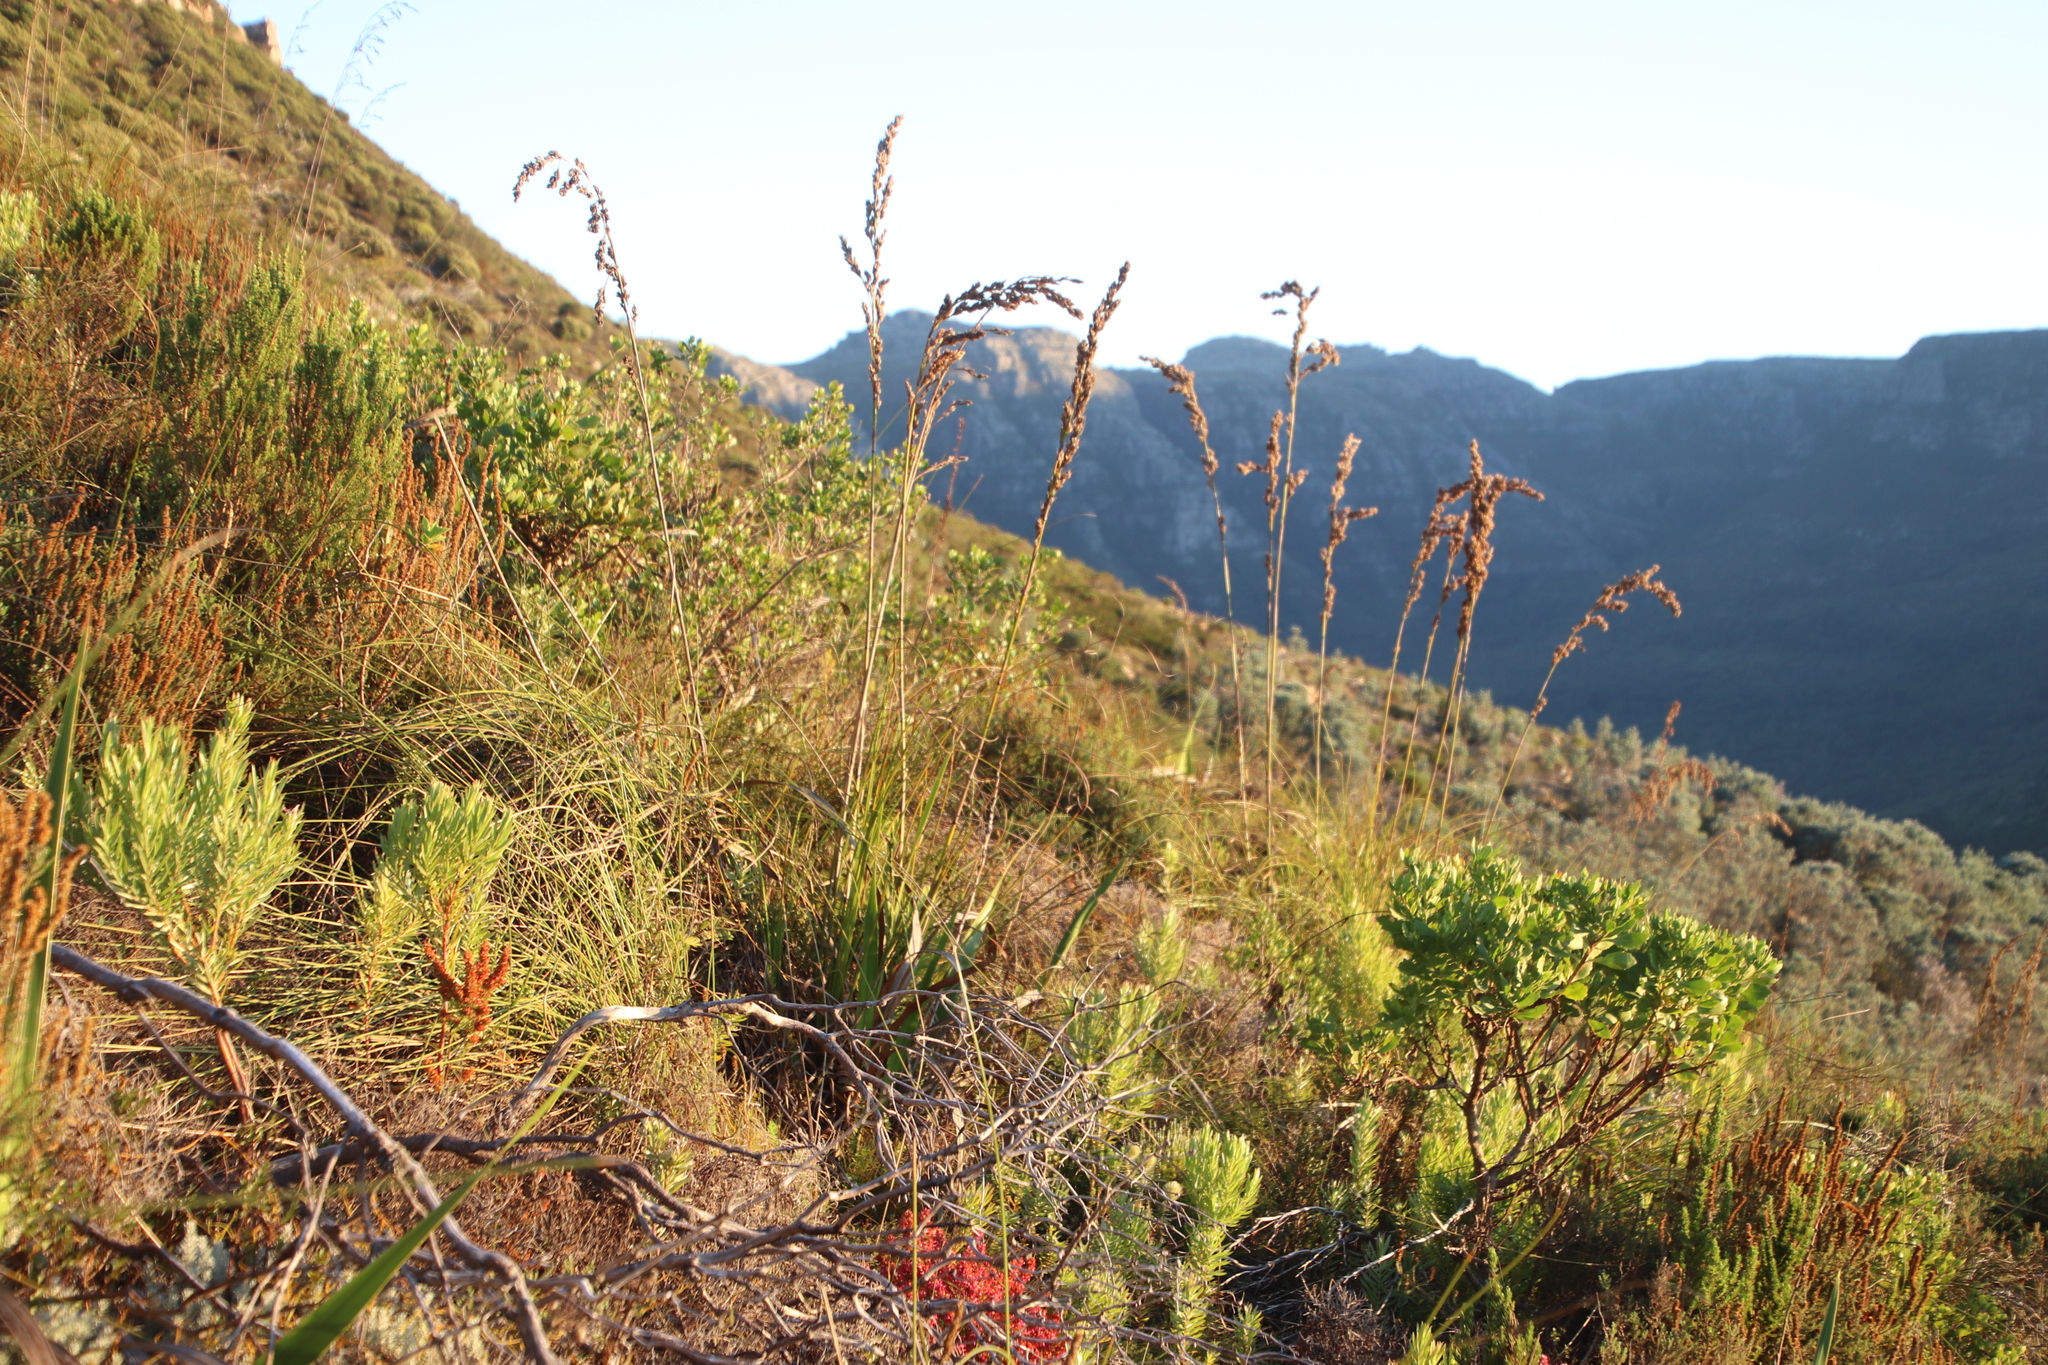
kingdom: Plantae
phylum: Tracheophyta
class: Liliopsida
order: Poales
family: Cyperaceae
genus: Tetraria
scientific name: Tetraria bromoides
